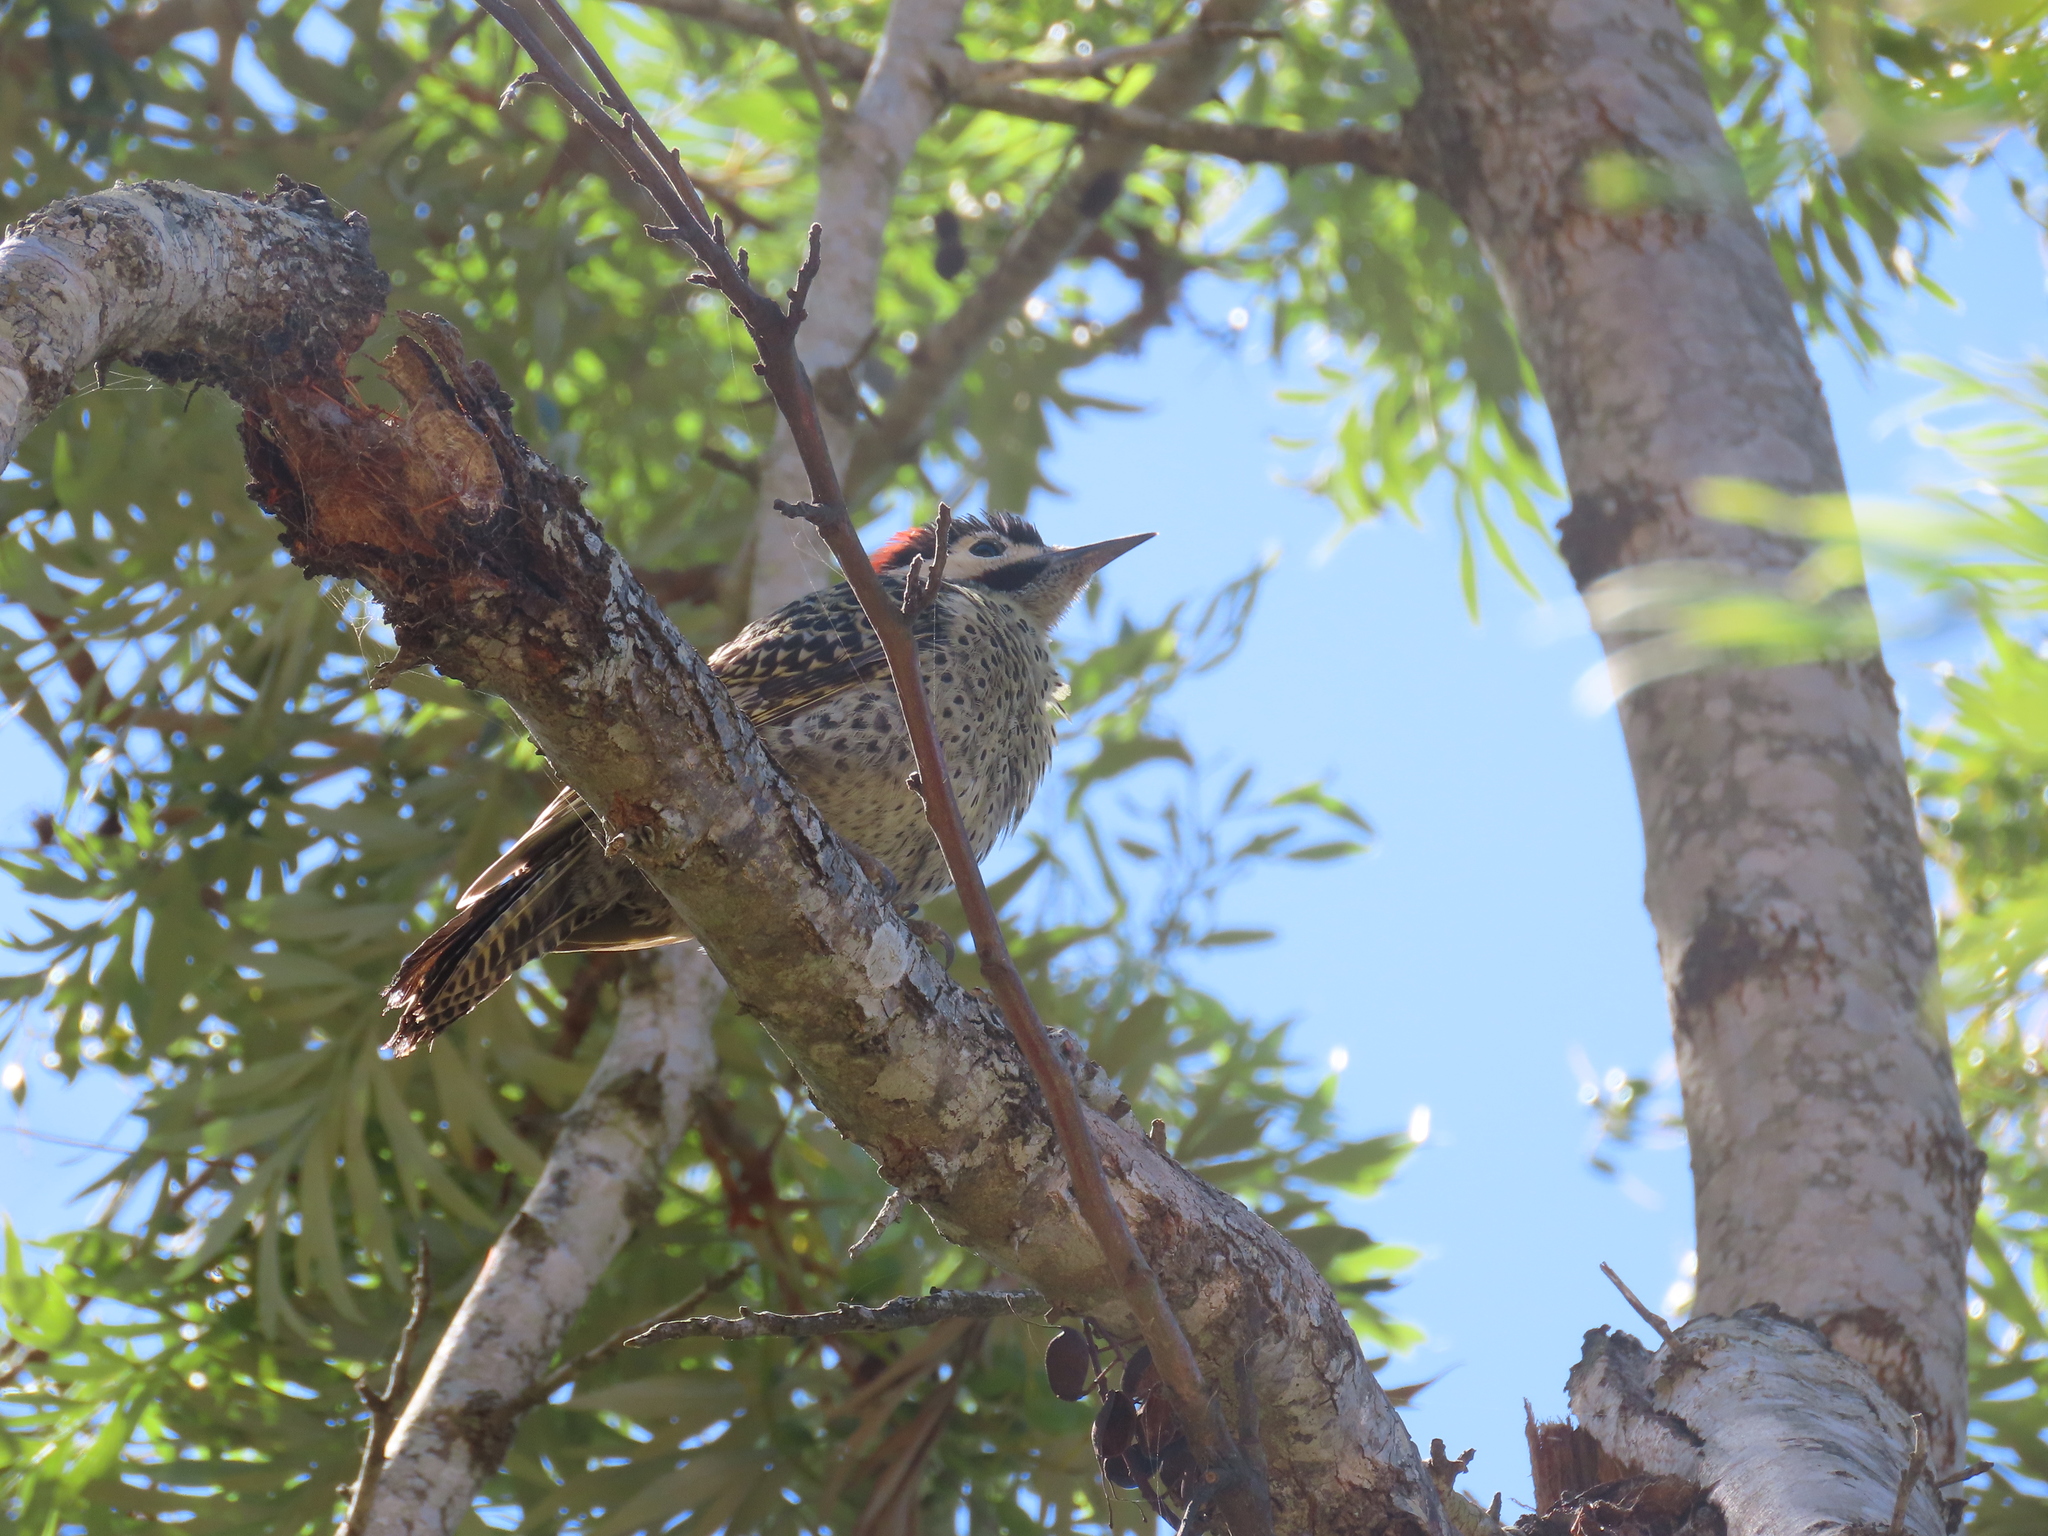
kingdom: Animalia
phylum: Chordata
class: Aves
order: Piciformes
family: Picidae
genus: Colaptes
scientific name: Colaptes melanochloros
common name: Green-barred woodpecker
